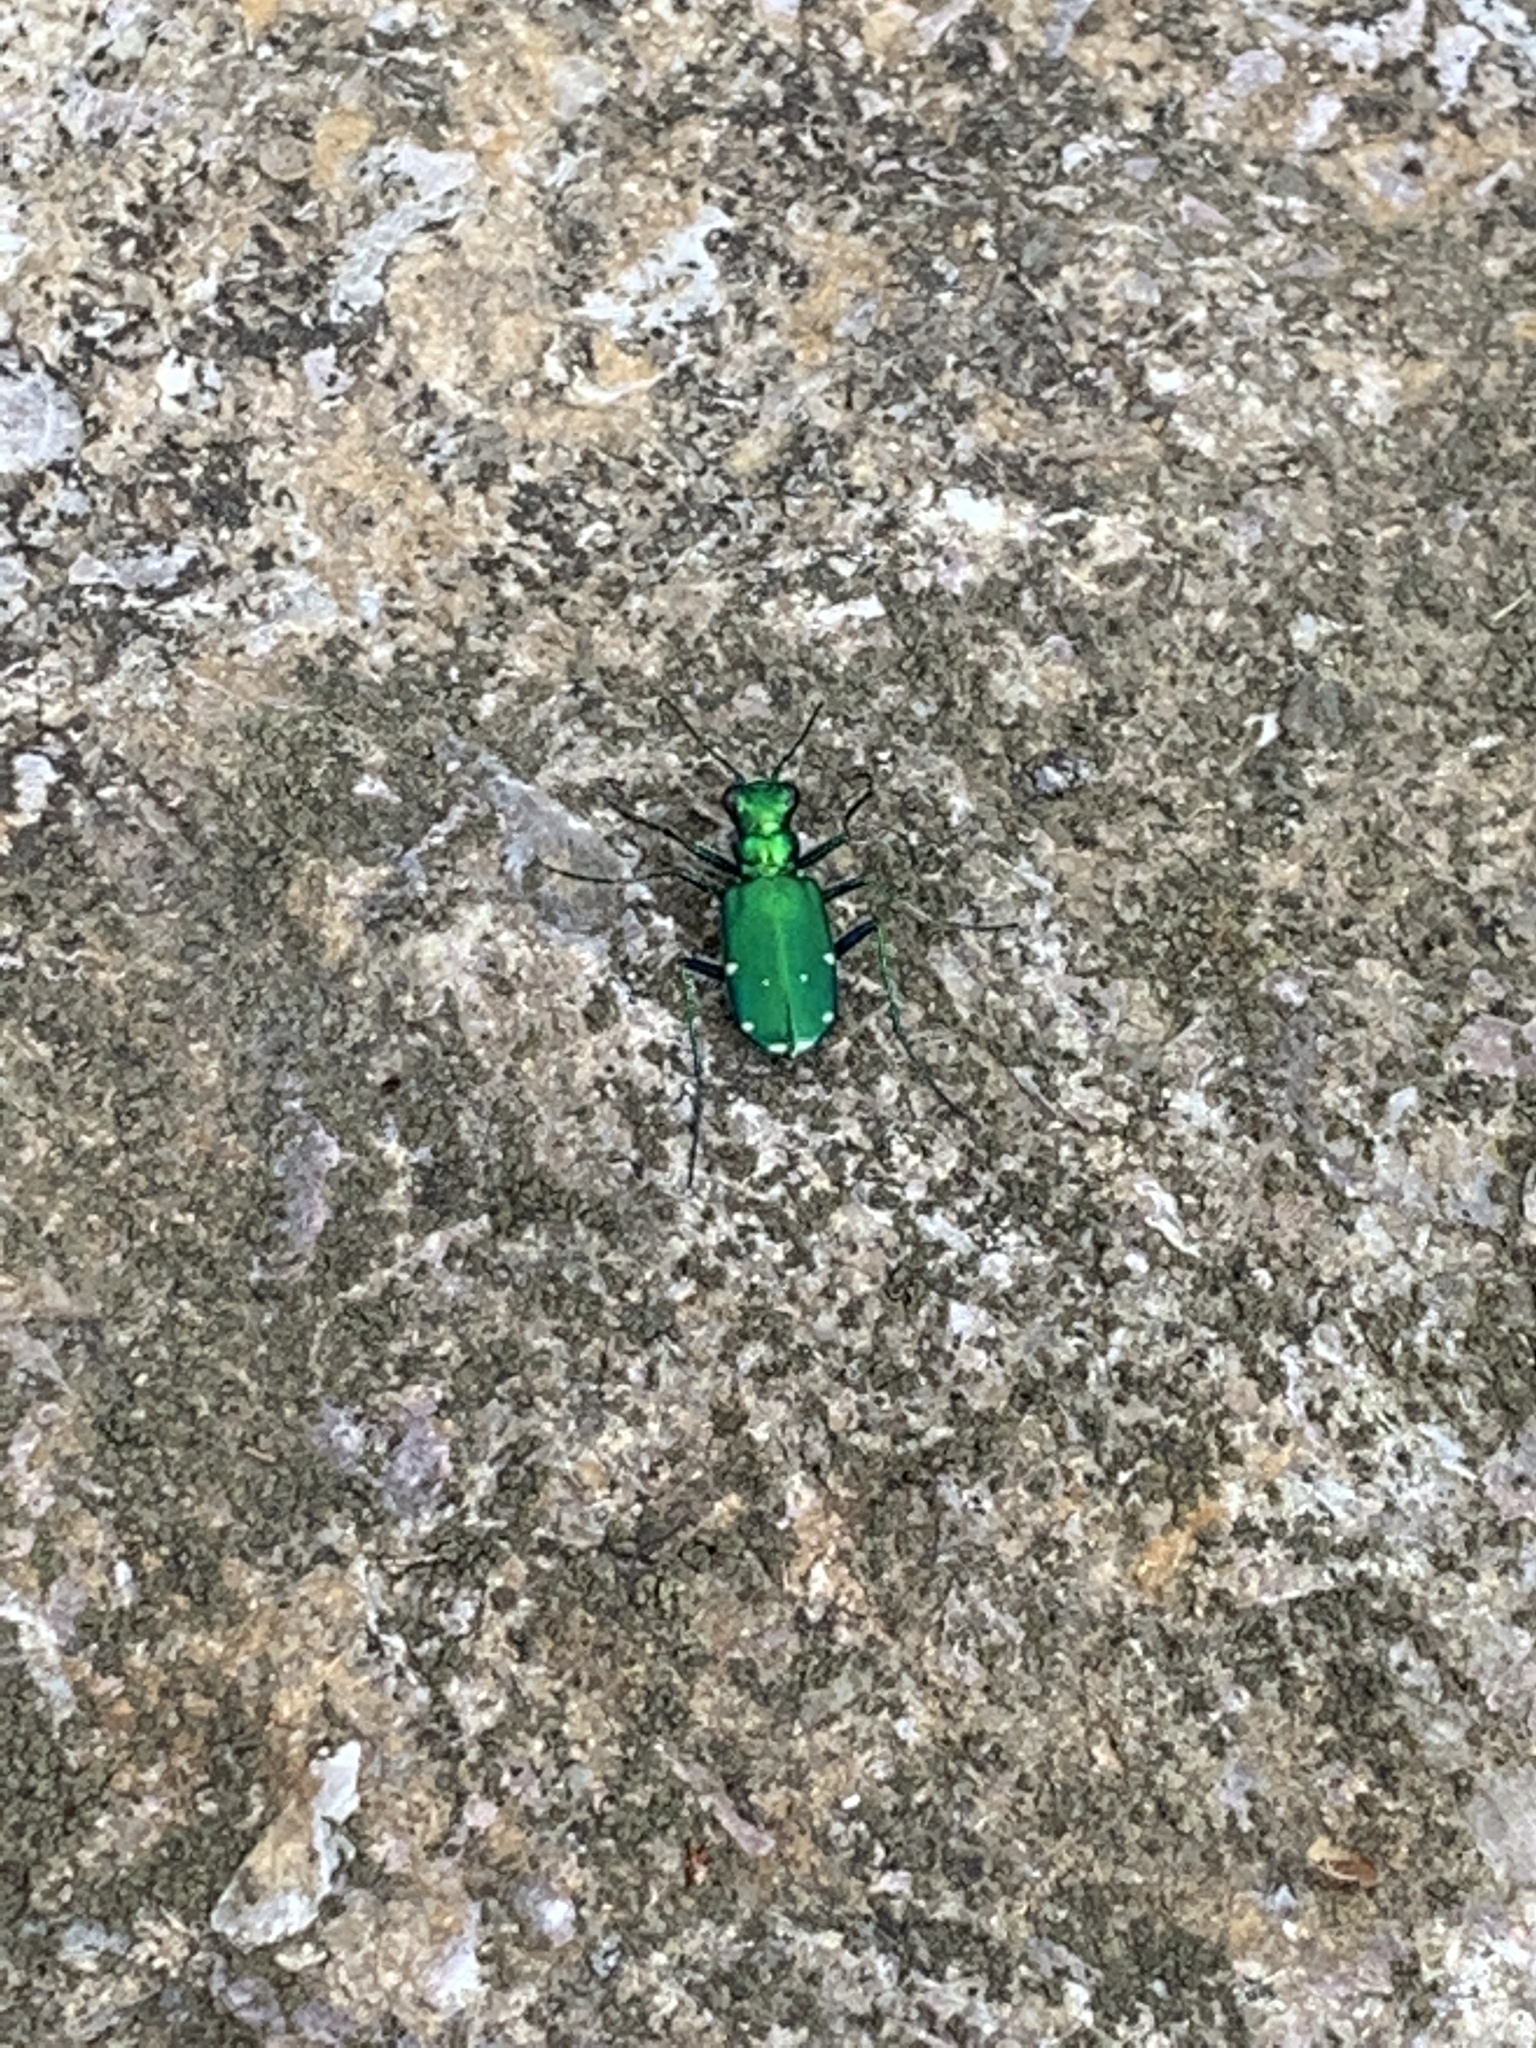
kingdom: Animalia
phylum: Arthropoda
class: Insecta
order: Coleoptera
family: Carabidae
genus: Cicindela
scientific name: Cicindela sexguttata
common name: Six-spotted tiger beetle
